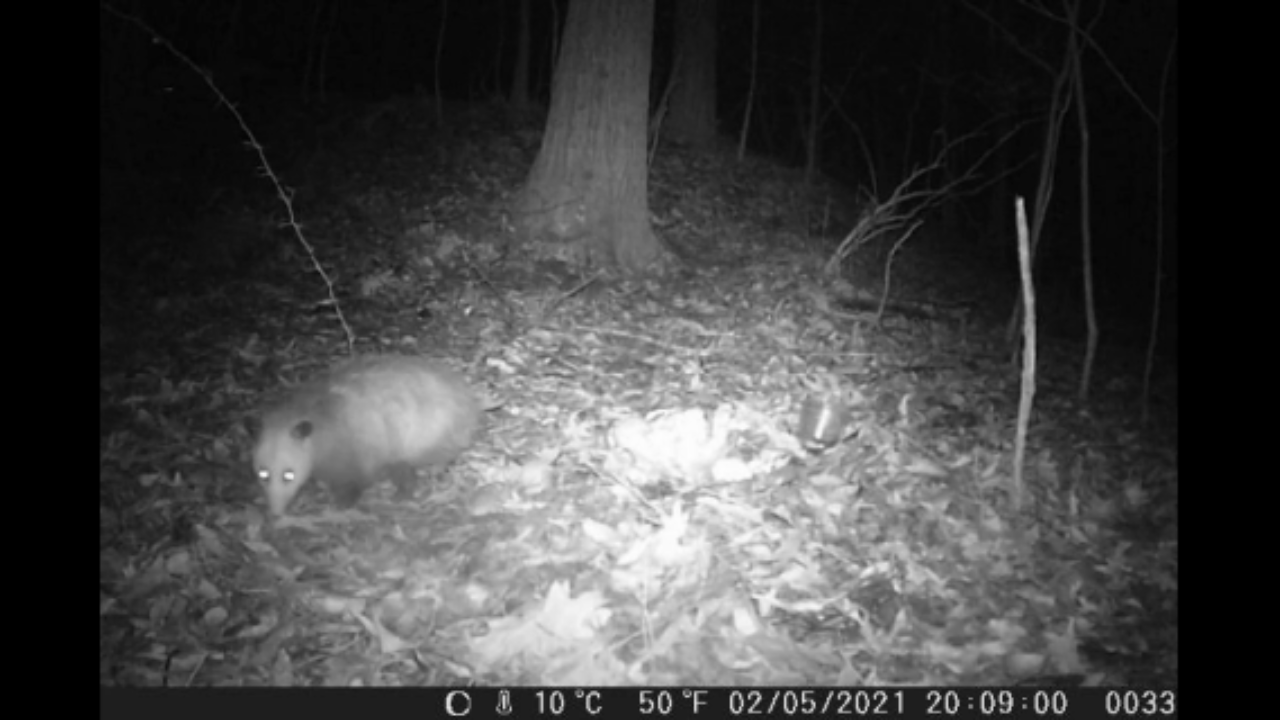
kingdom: Animalia
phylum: Chordata
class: Mammalia
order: Didelphimorphia
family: Didelphidae
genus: Didelphis
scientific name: Didelphis virginiana
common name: Virginia opossum
